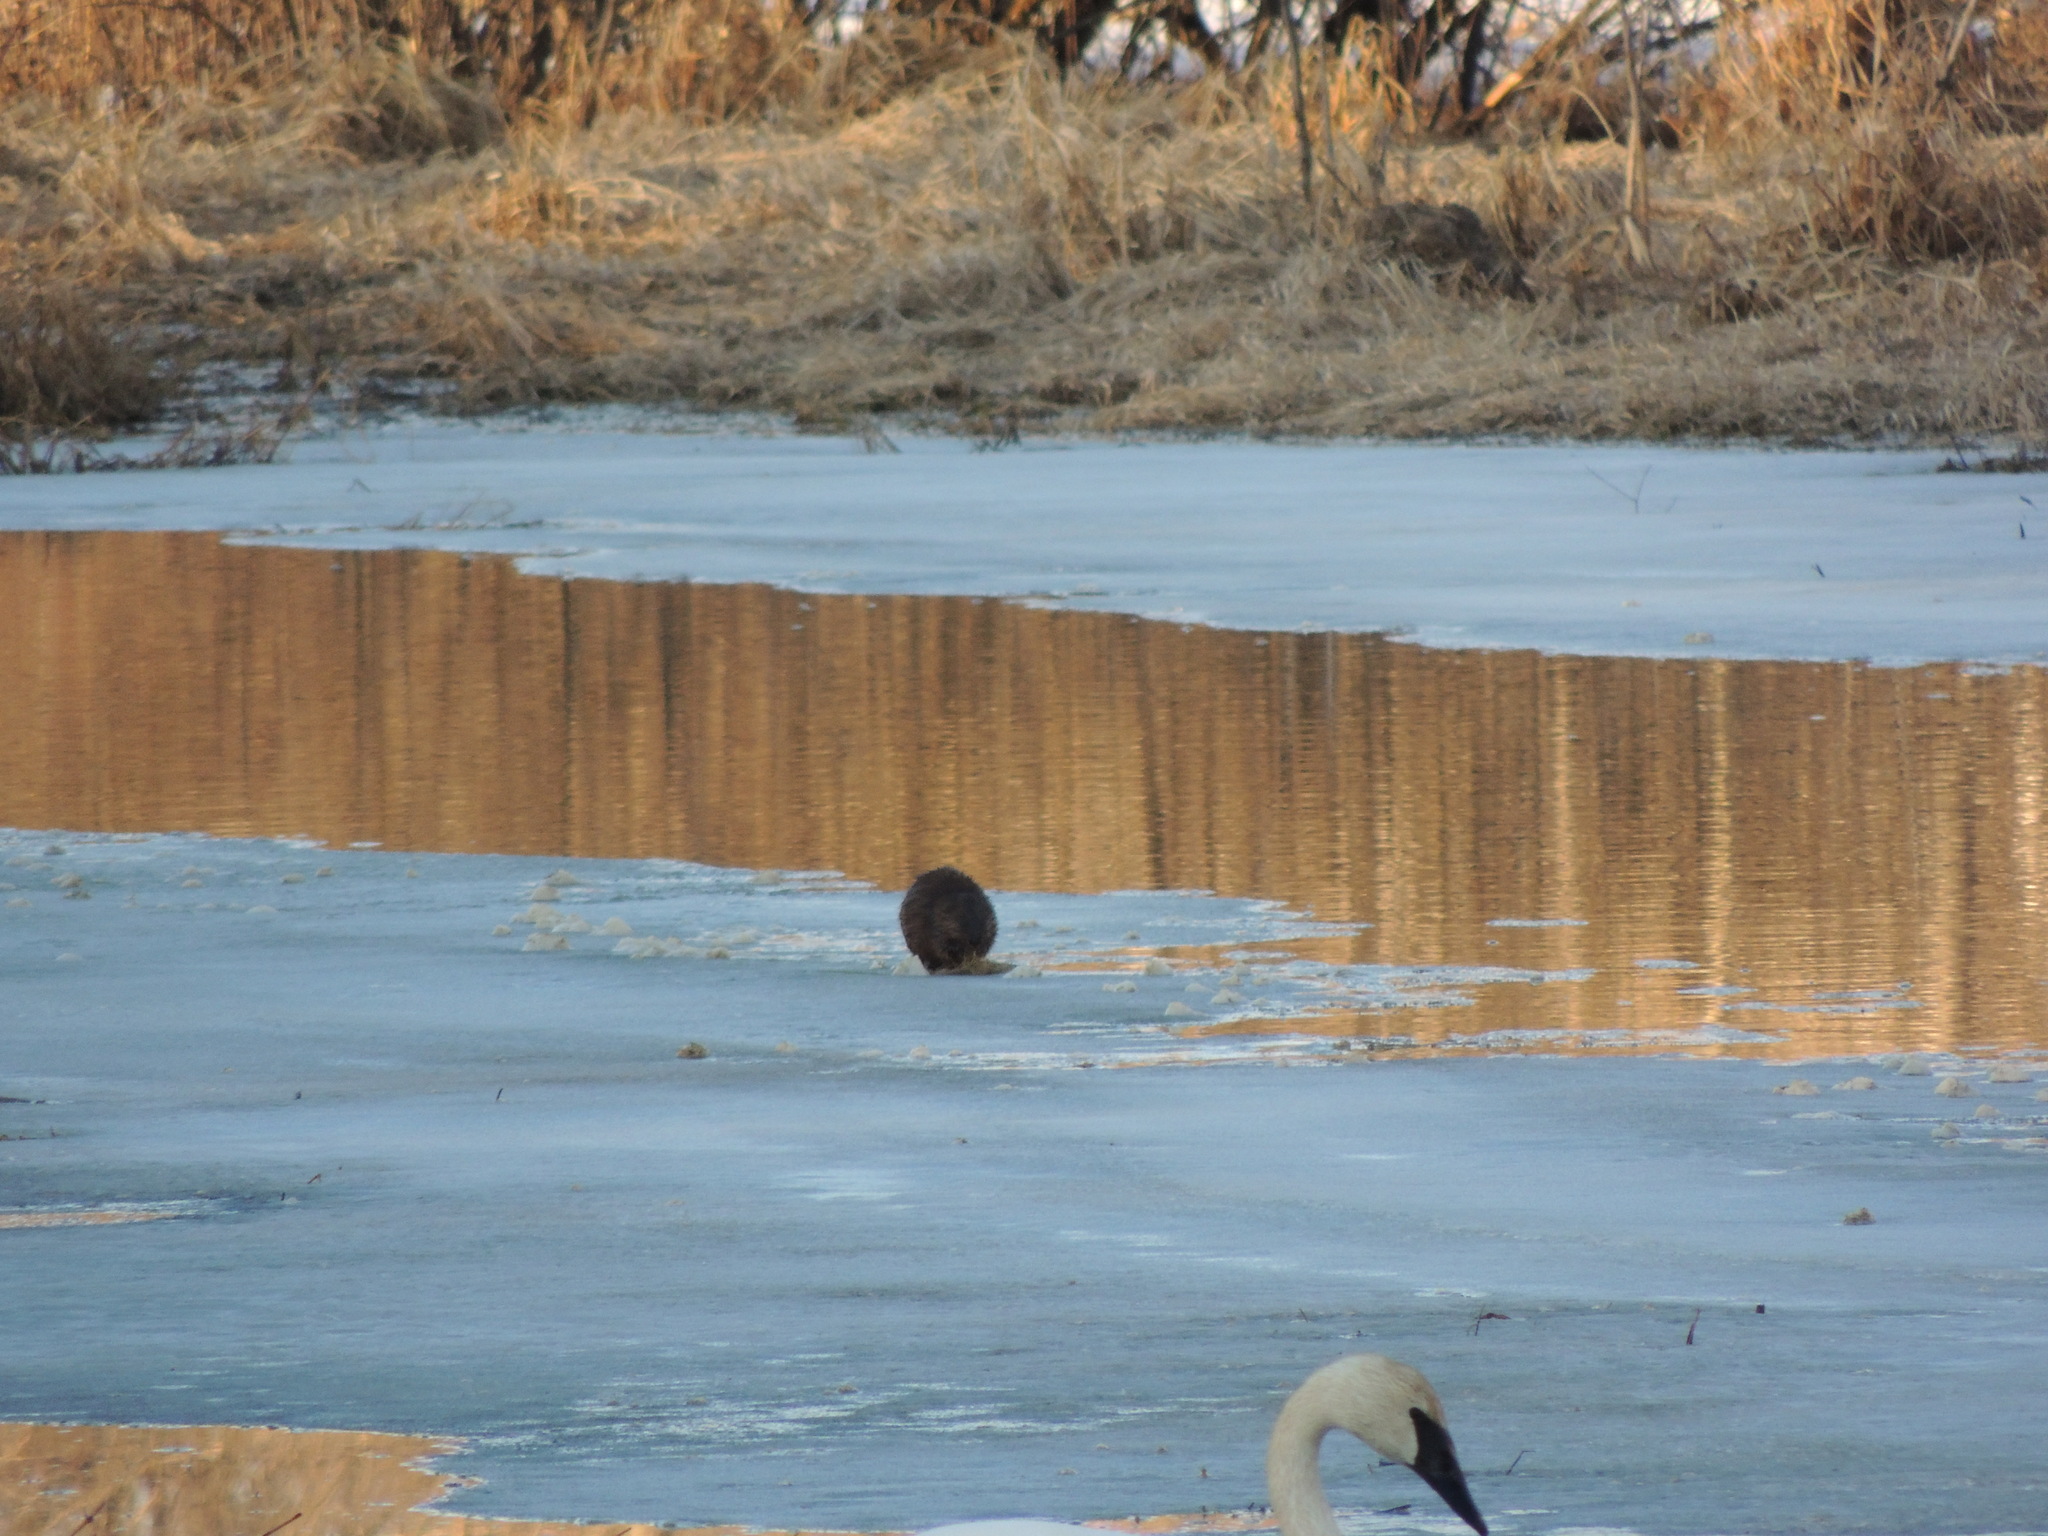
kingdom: Animalia
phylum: Chordata
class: Mammalia
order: Rodentia
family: Cricetidae
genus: Ondatra
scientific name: Ondatra zibethicus
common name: Muskrat
